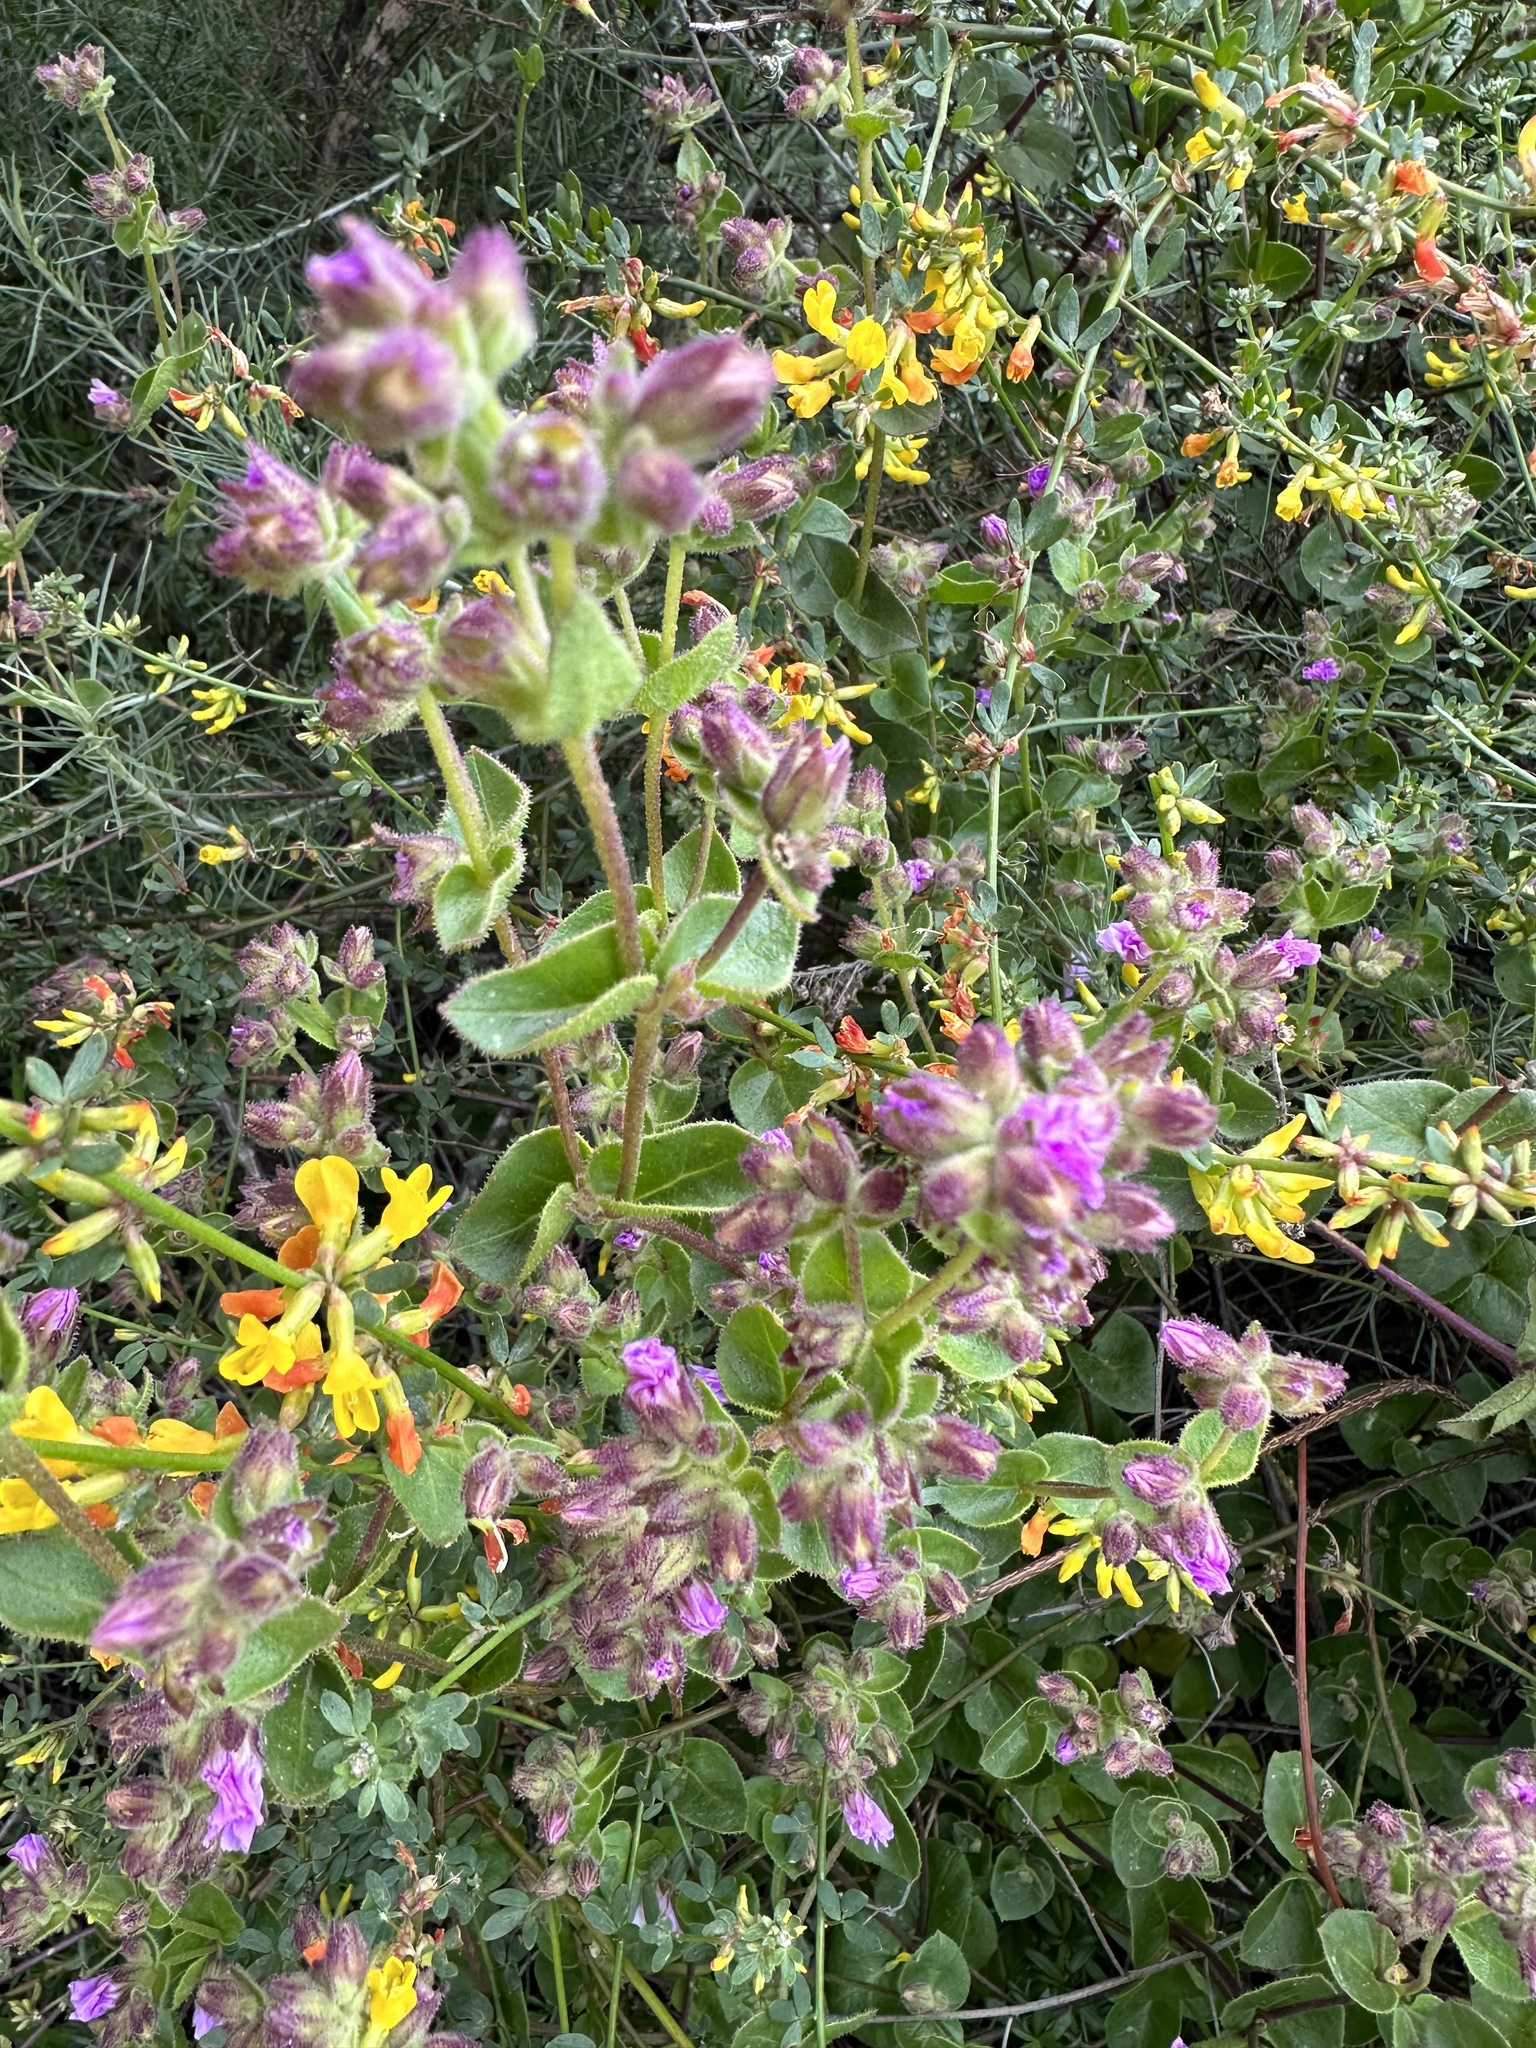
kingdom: Plantae
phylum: Tracheophyta
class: Magnoliopsida
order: Caryophyllales
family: Nyctaginaceae
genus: Mirabilis
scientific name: Mirabilis laevis
